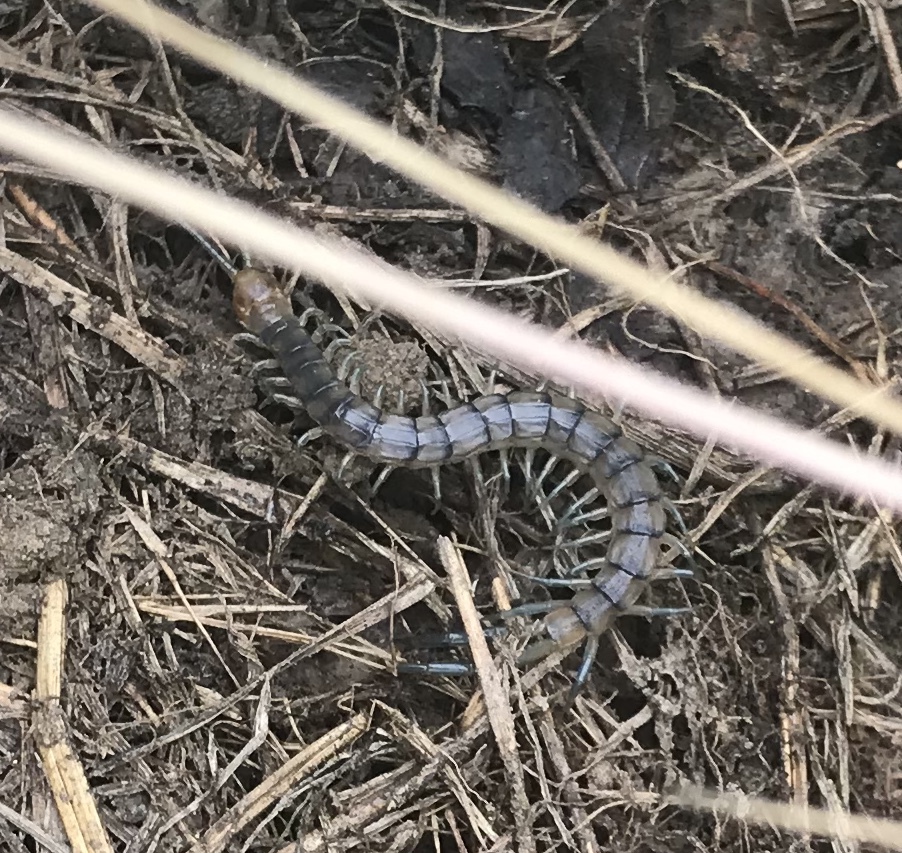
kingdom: Animalia
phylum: Arthropoda
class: Chilopoda
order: Scolopendromorpha
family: Scolopendridae
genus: Scolopendra
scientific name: Scolopendra polymorpha
